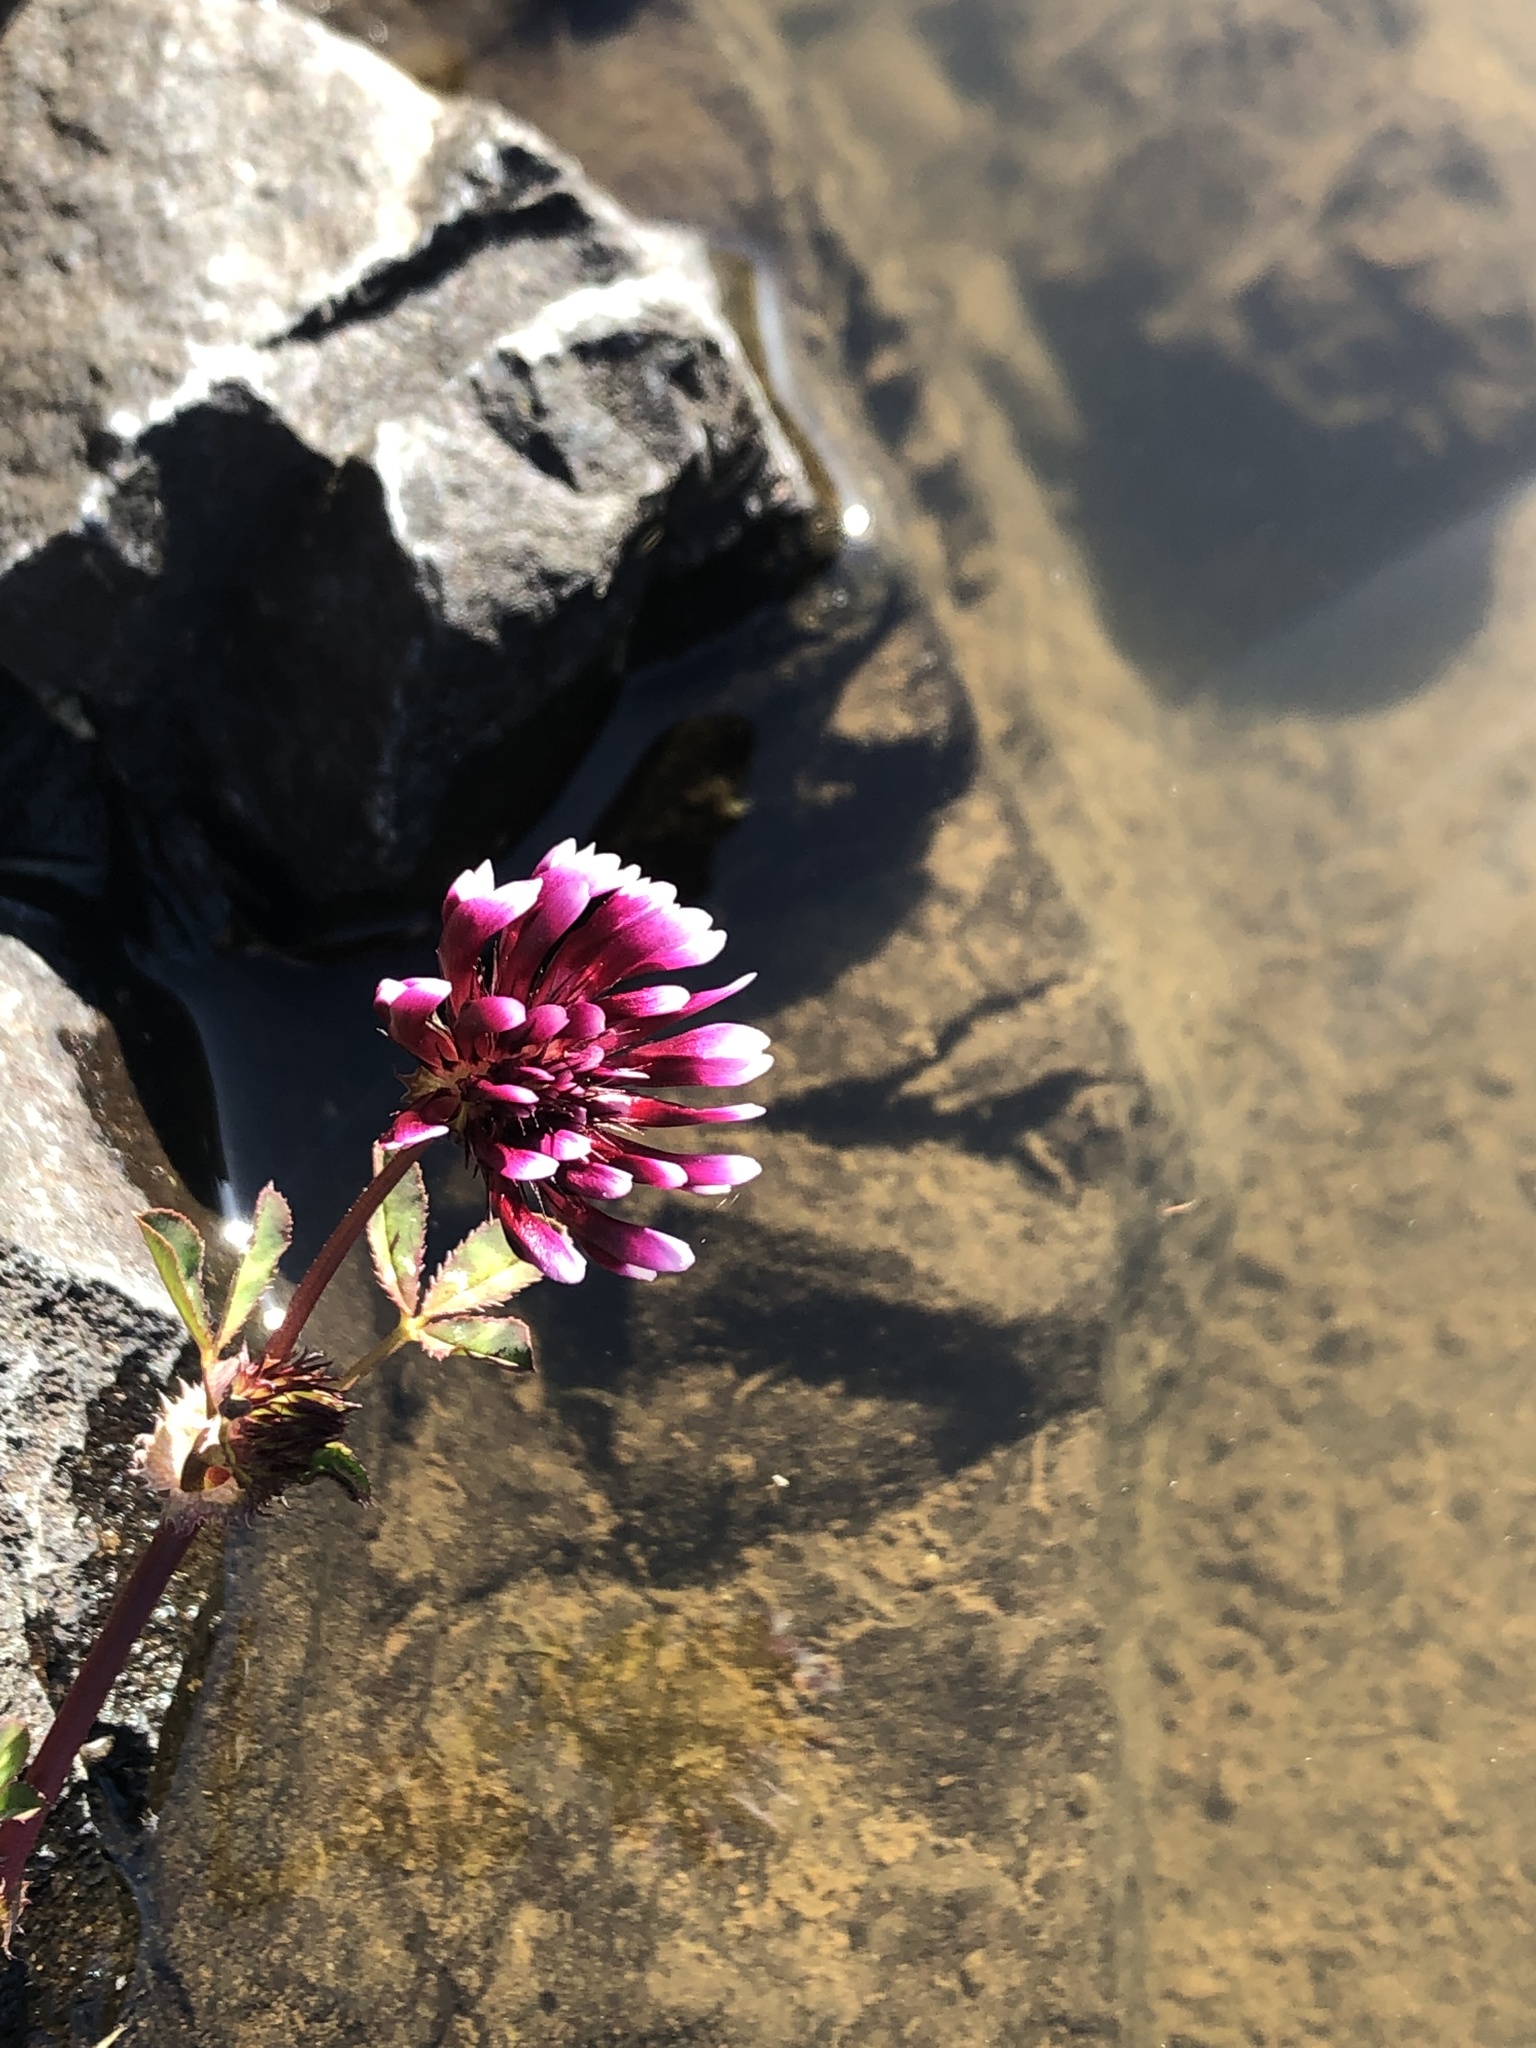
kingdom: Plantae
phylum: Tracheophyta
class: Magnoliopsida
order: Fabales
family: Fabaceae
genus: Trifolium
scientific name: Trifolium variegatum
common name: Whitetip clover
